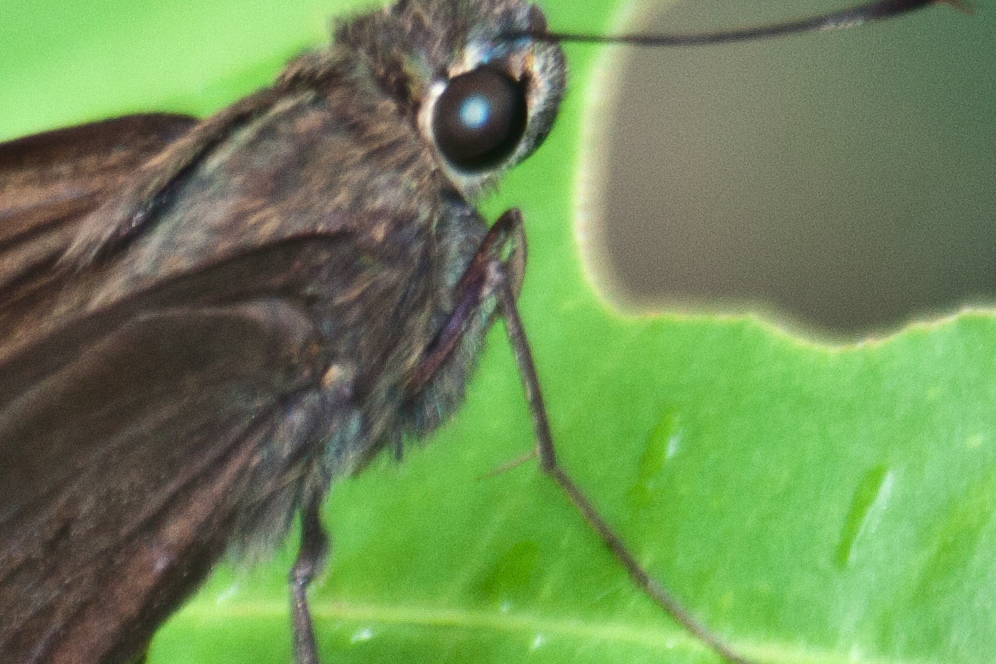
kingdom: Animalia
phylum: Arthropoda
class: Insecta
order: Lepidoptera
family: Hesperiidae
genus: Baoris
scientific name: Baoris farri
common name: Paintbrush swift
